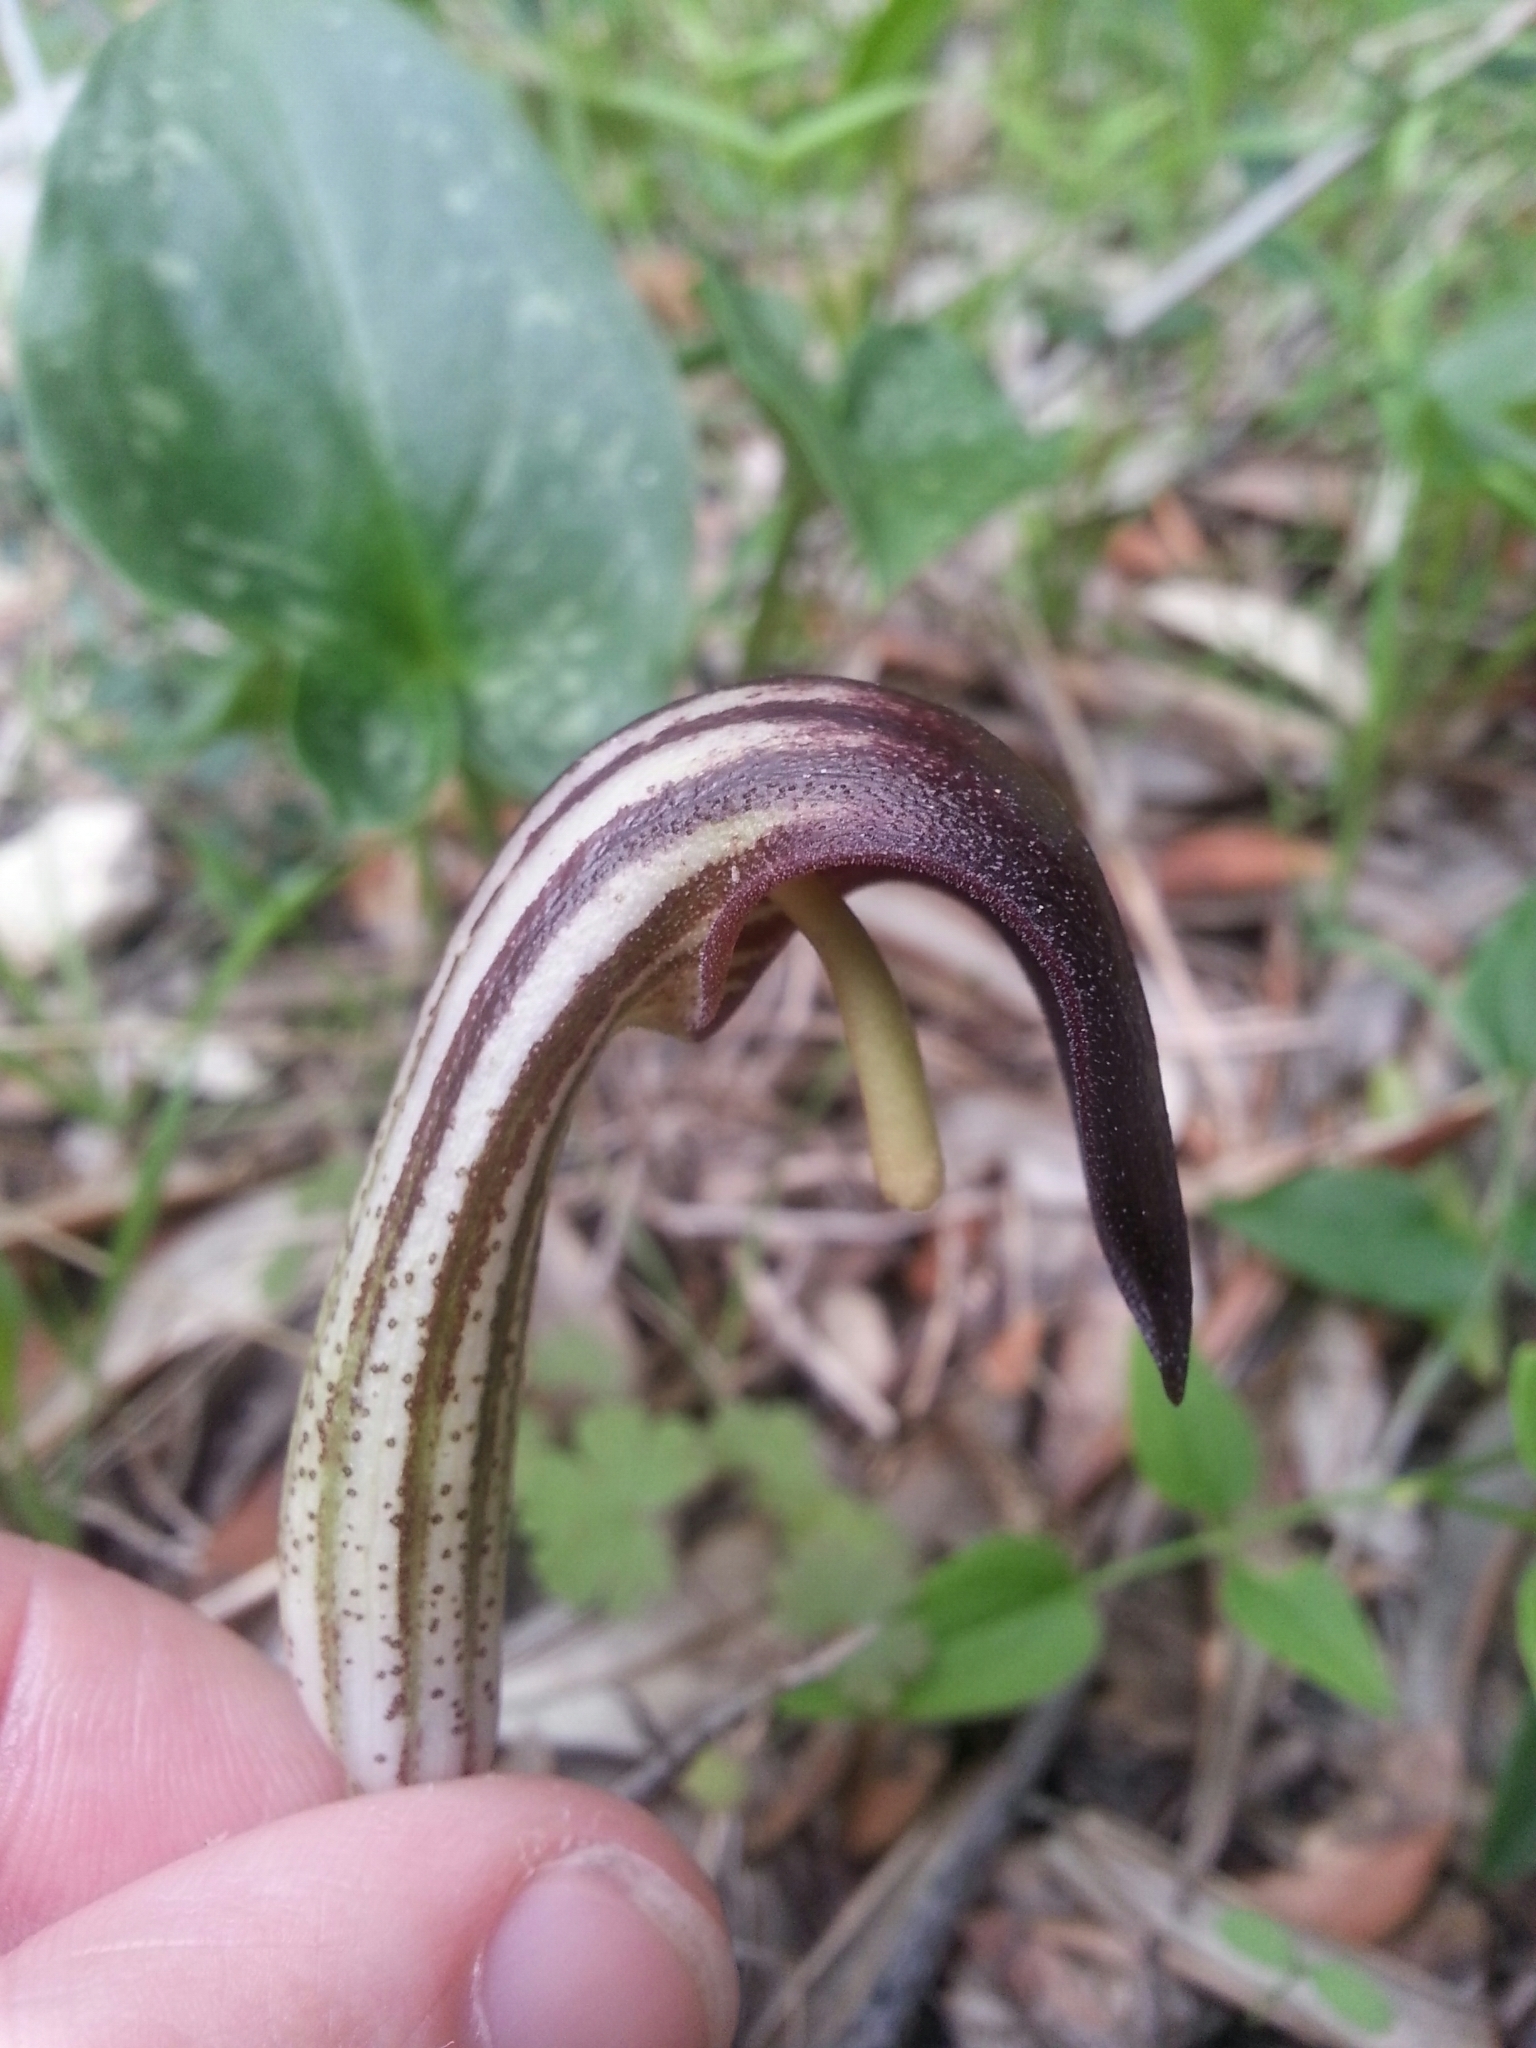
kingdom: Plantae
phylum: Tracheophyta
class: Liliopsida
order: Alismatales
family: Araceae
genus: Arisarum
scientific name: Arisarum vulgare
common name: Common arisarum
